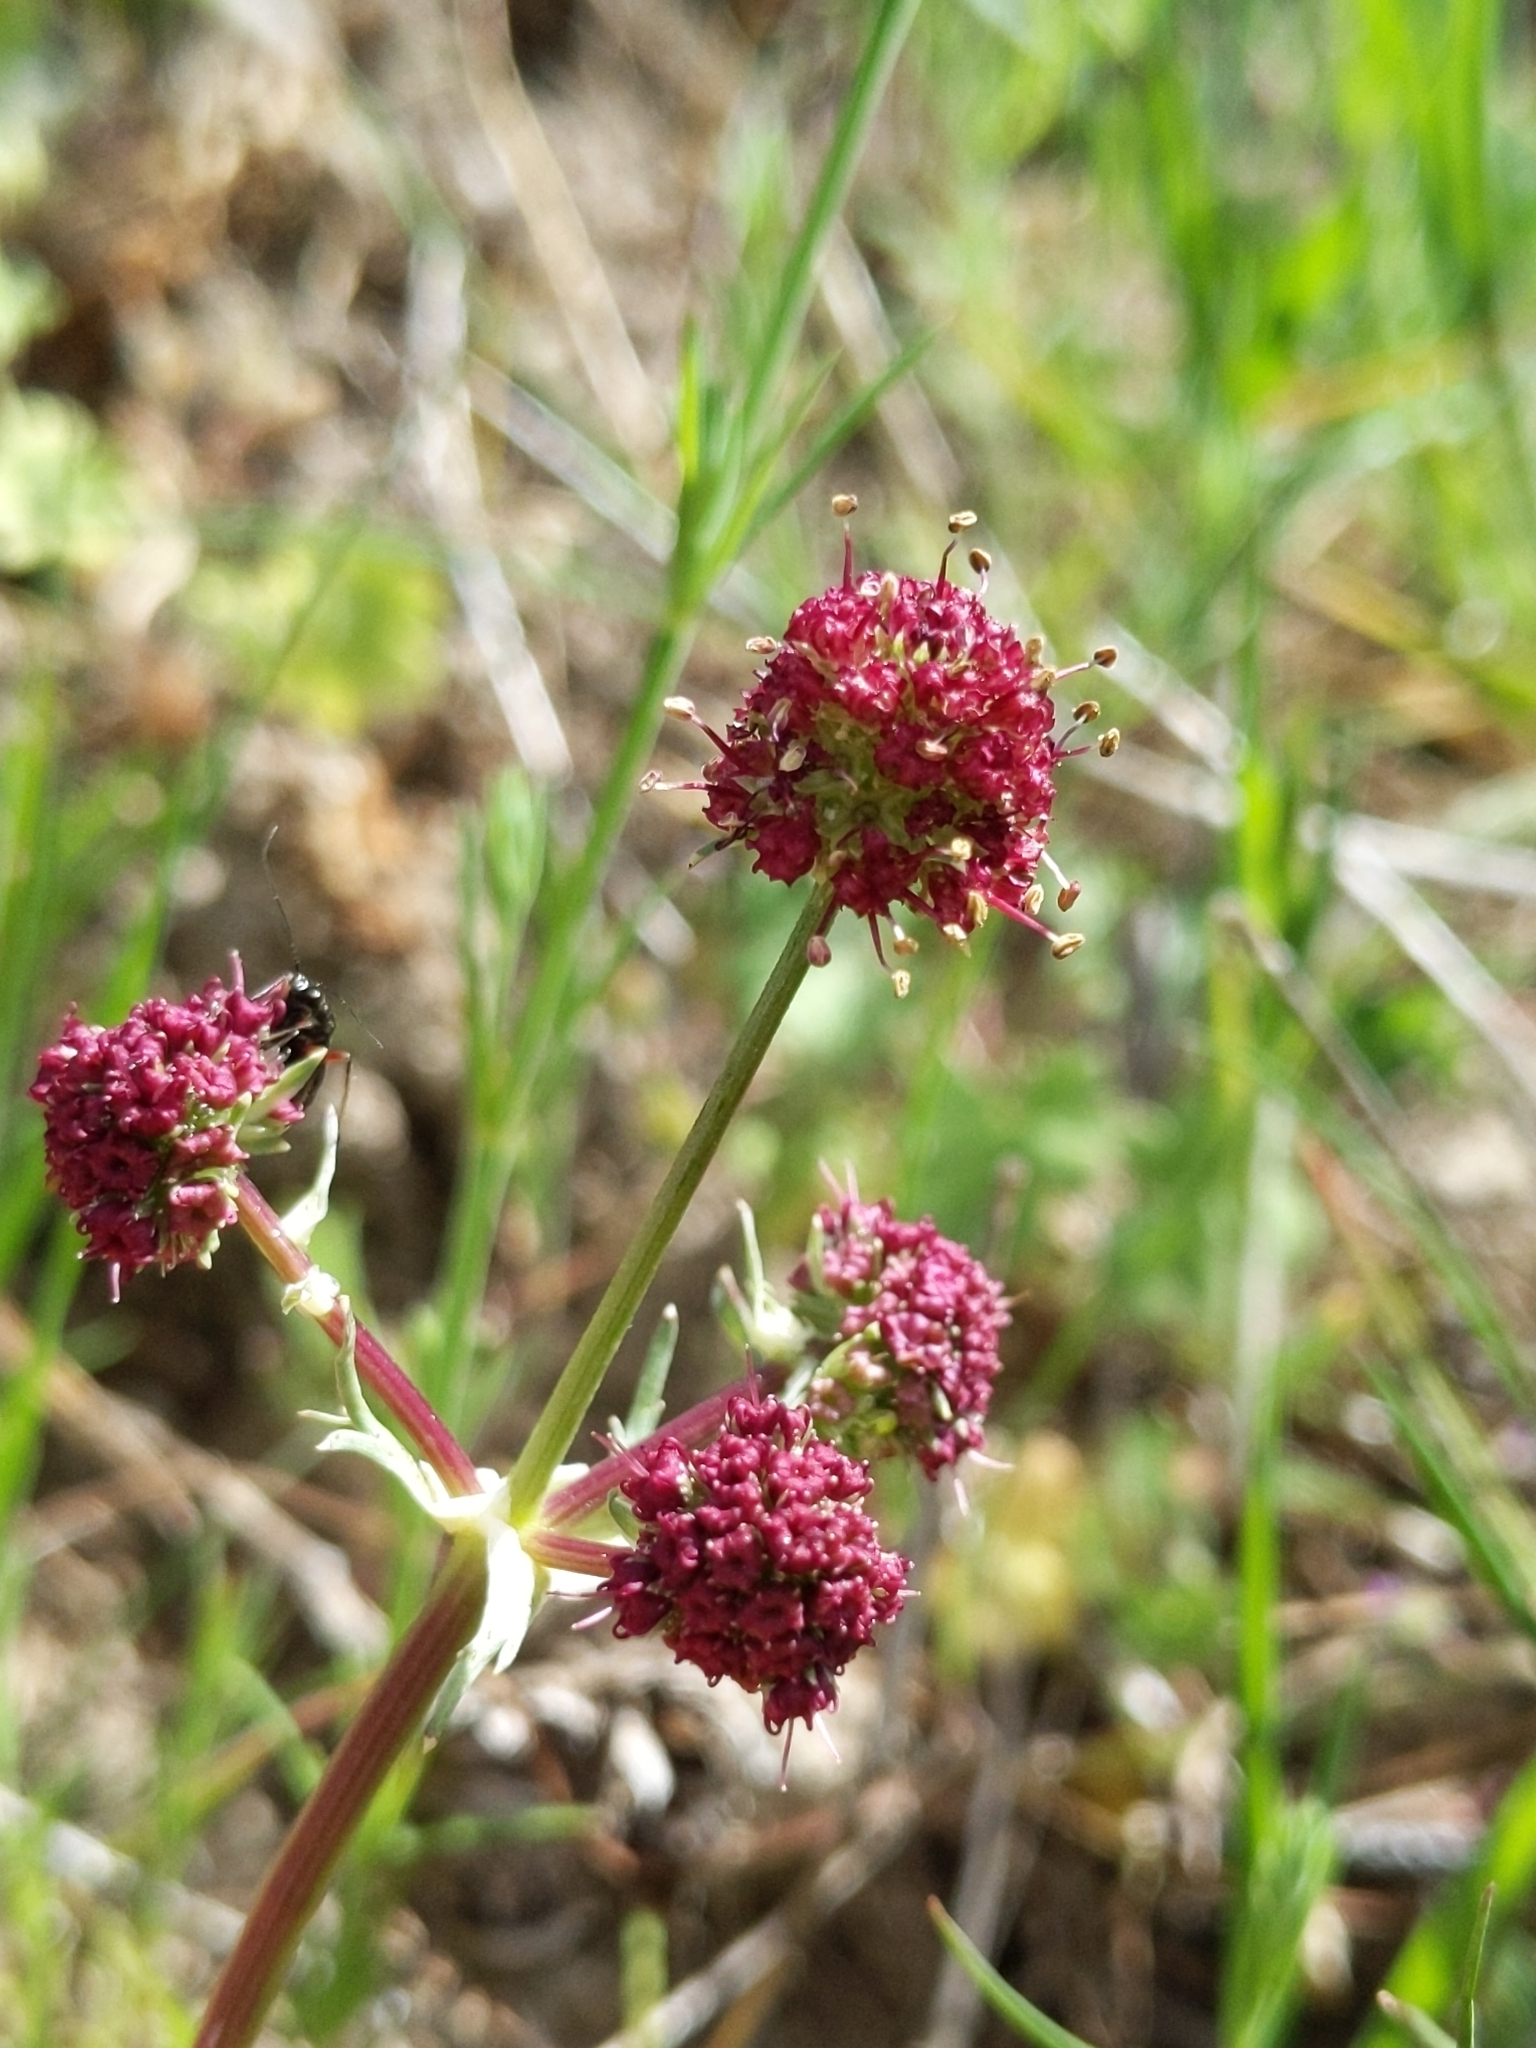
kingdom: Plantae
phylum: Tracheophyta
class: Magnoliopsida
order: Apiales
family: Apiaceae
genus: Sanicula
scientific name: Sanicula bipinnatifida
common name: Shoe-buttons
